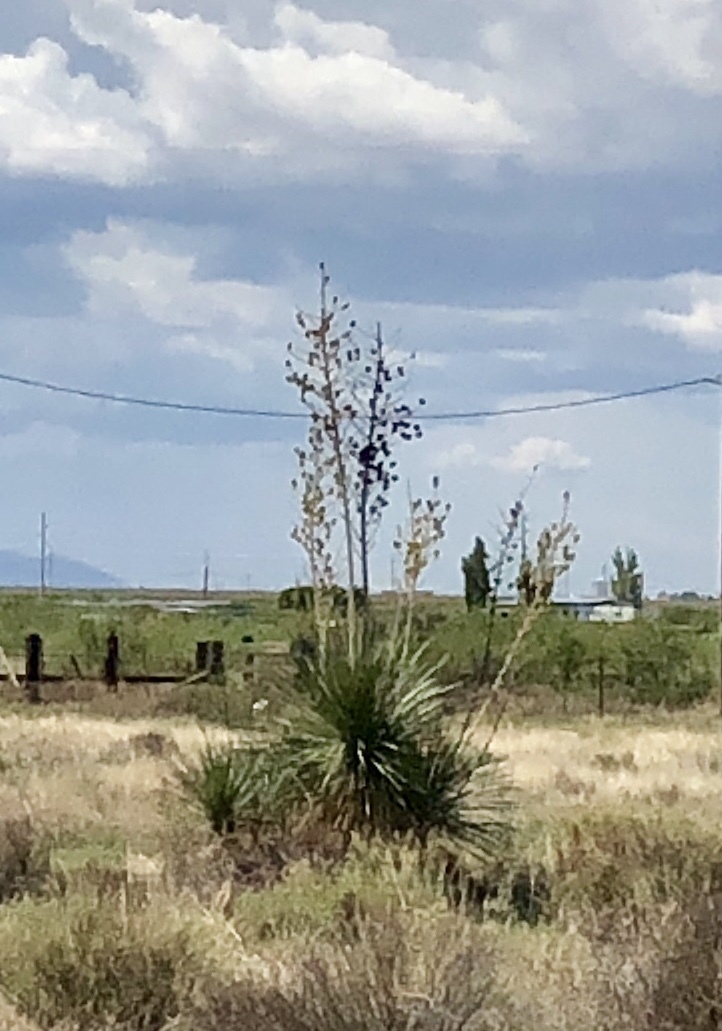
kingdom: Plantae
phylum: Tracheophyta
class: Liliopsida
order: Asparagales
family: Asparagaceae
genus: Yucca
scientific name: Yucca elata
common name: Palmella
